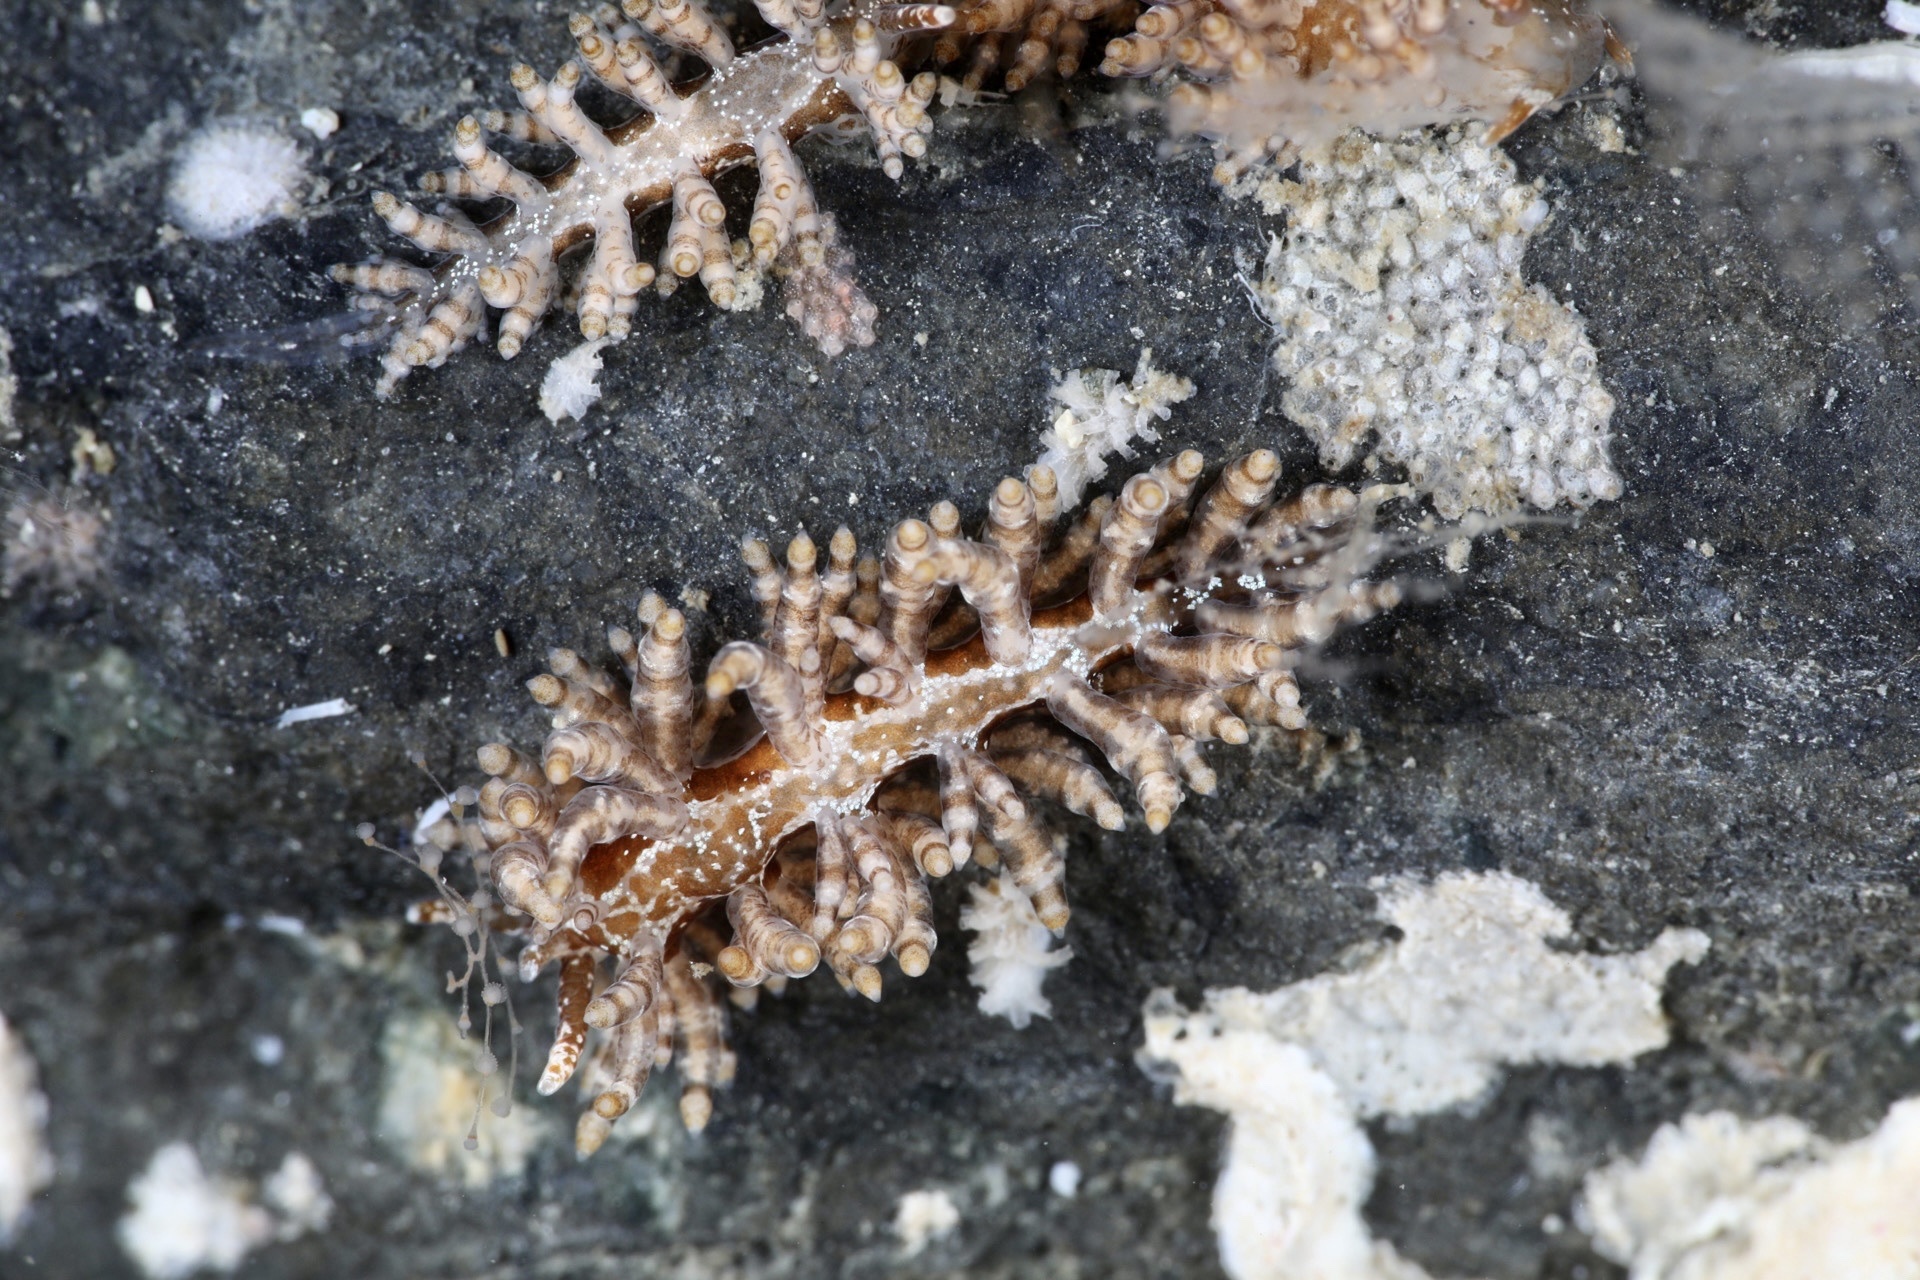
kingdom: Animalia
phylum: Mollusca
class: Gastropoda
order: Nudibranchia
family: Eubranchidae
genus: Eubranchus
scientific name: Eubranchus vittatus
